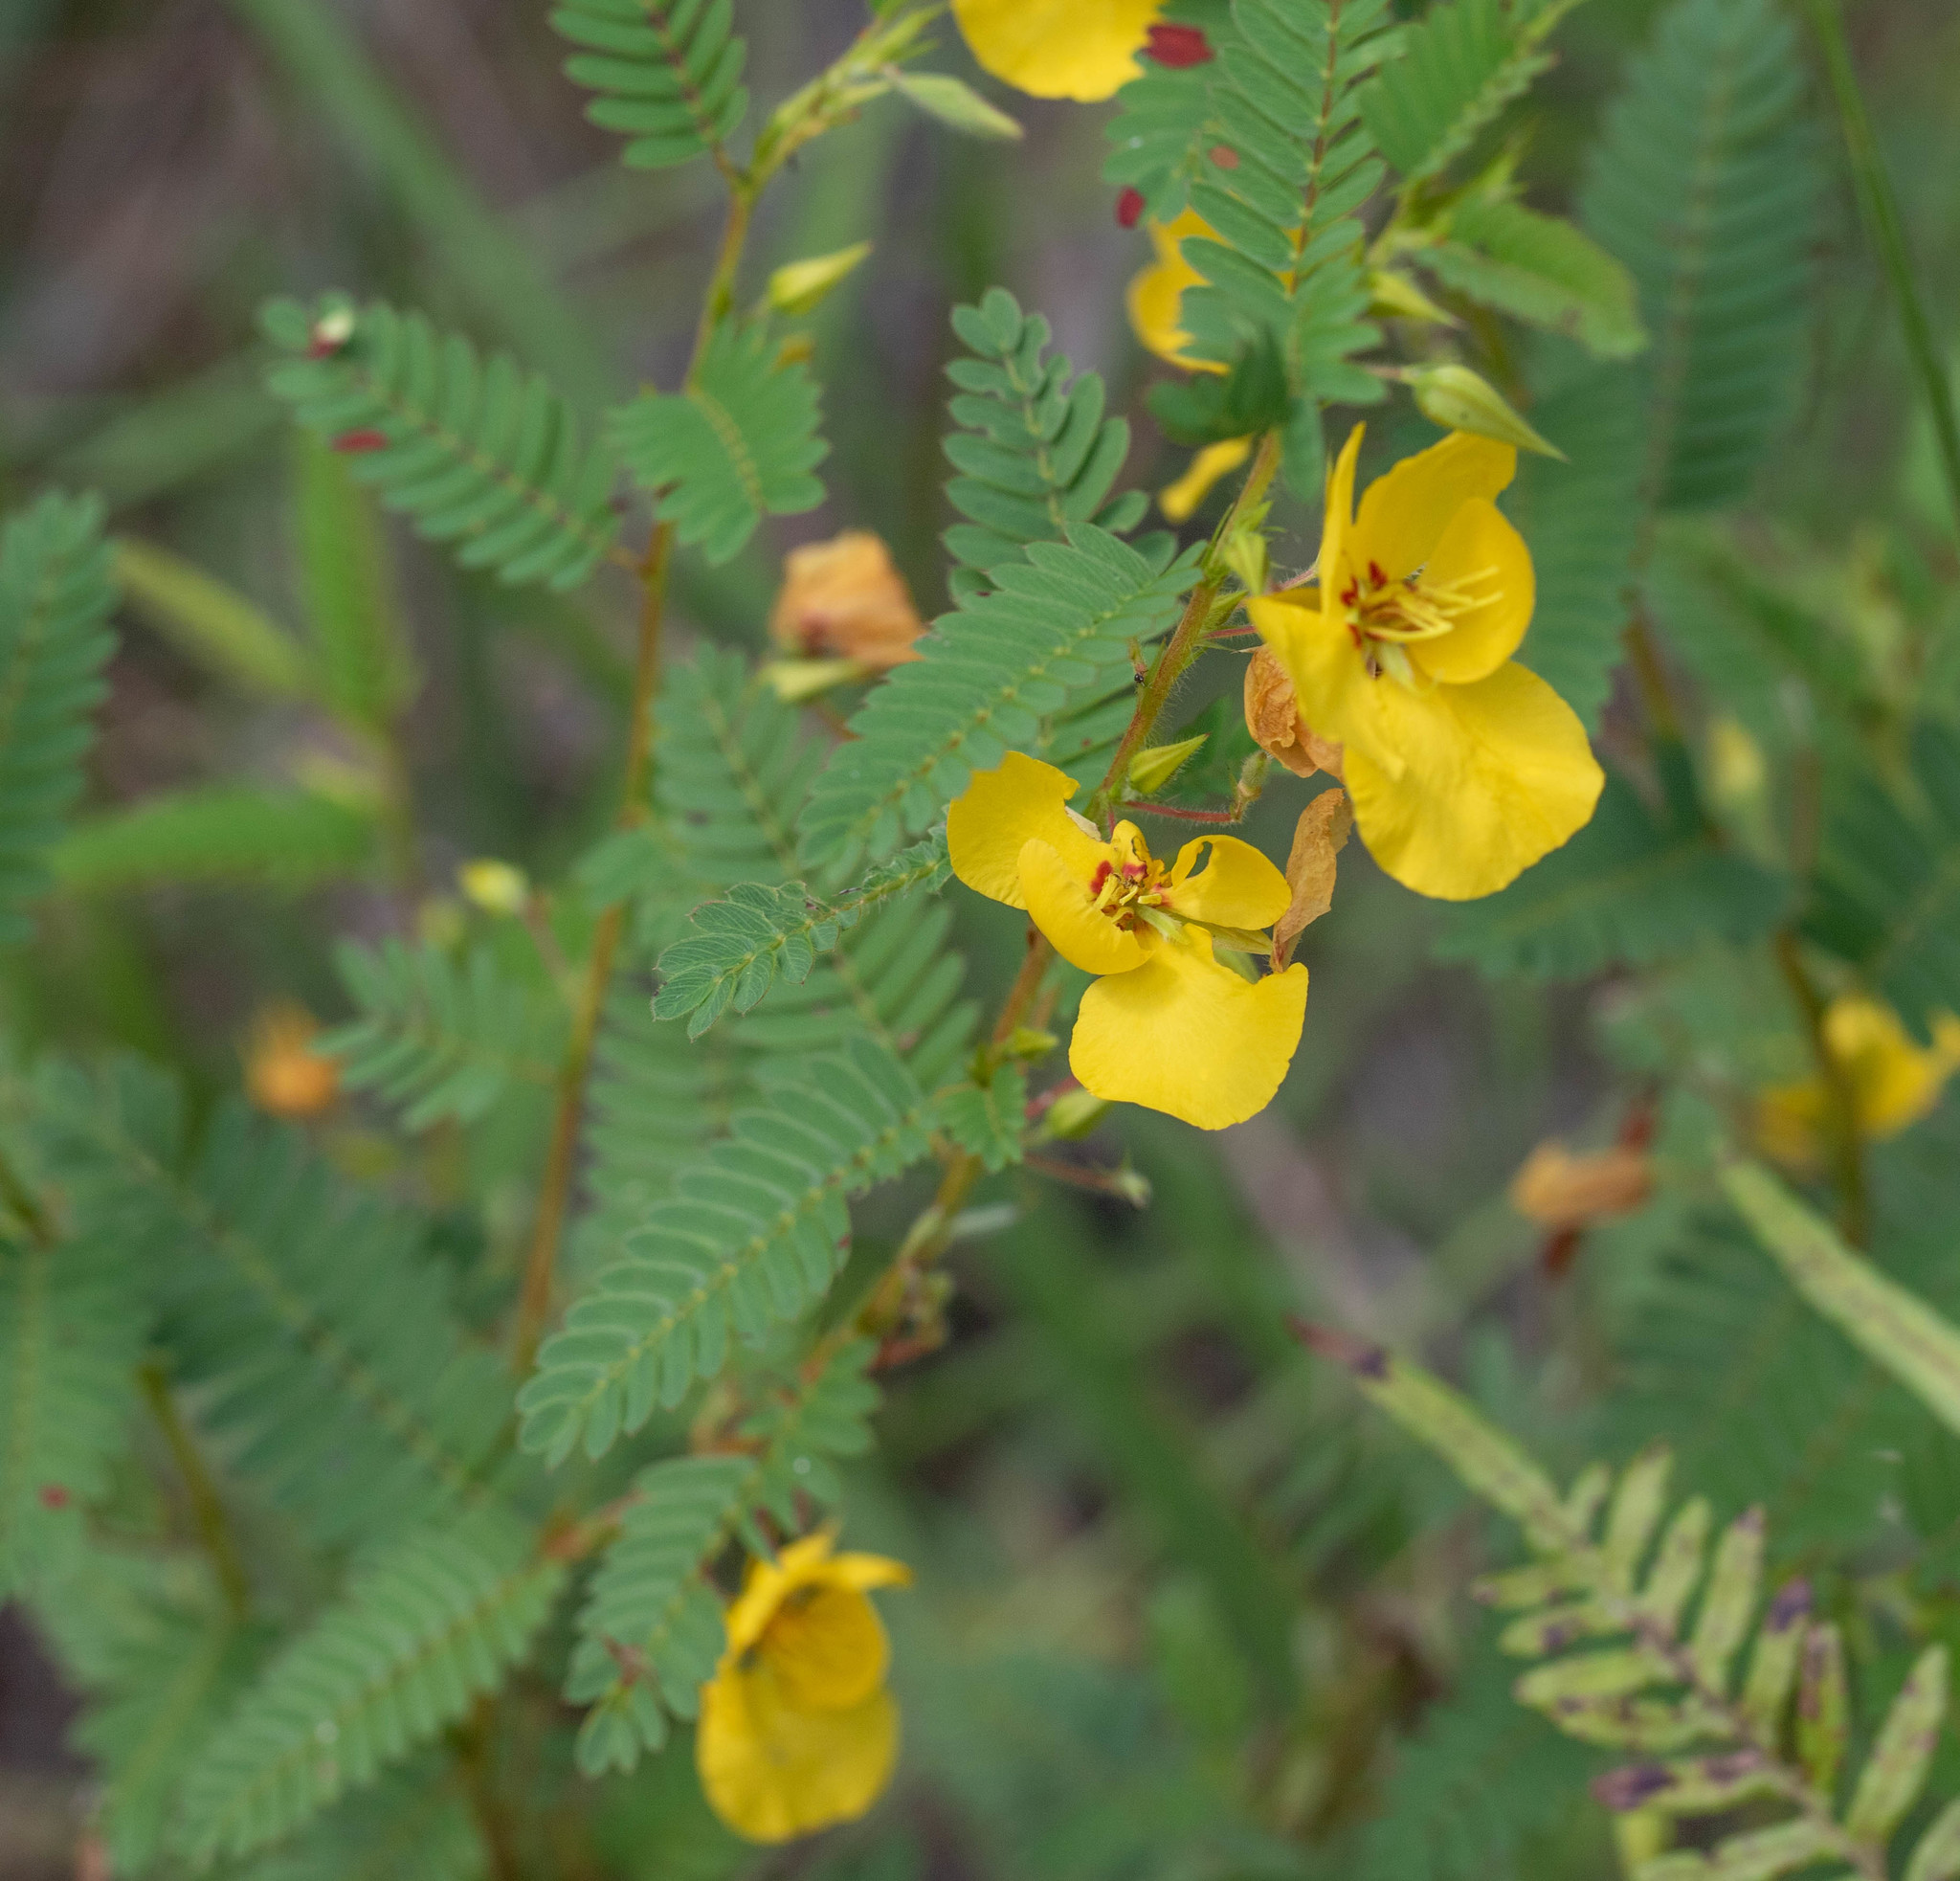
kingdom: Plantae
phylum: Tracheophyta
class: Magnoliopsida
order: Fabales
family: Fabaceae
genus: Chamaecrista
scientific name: Chamaecrista fasciculata
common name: Golden cassia
